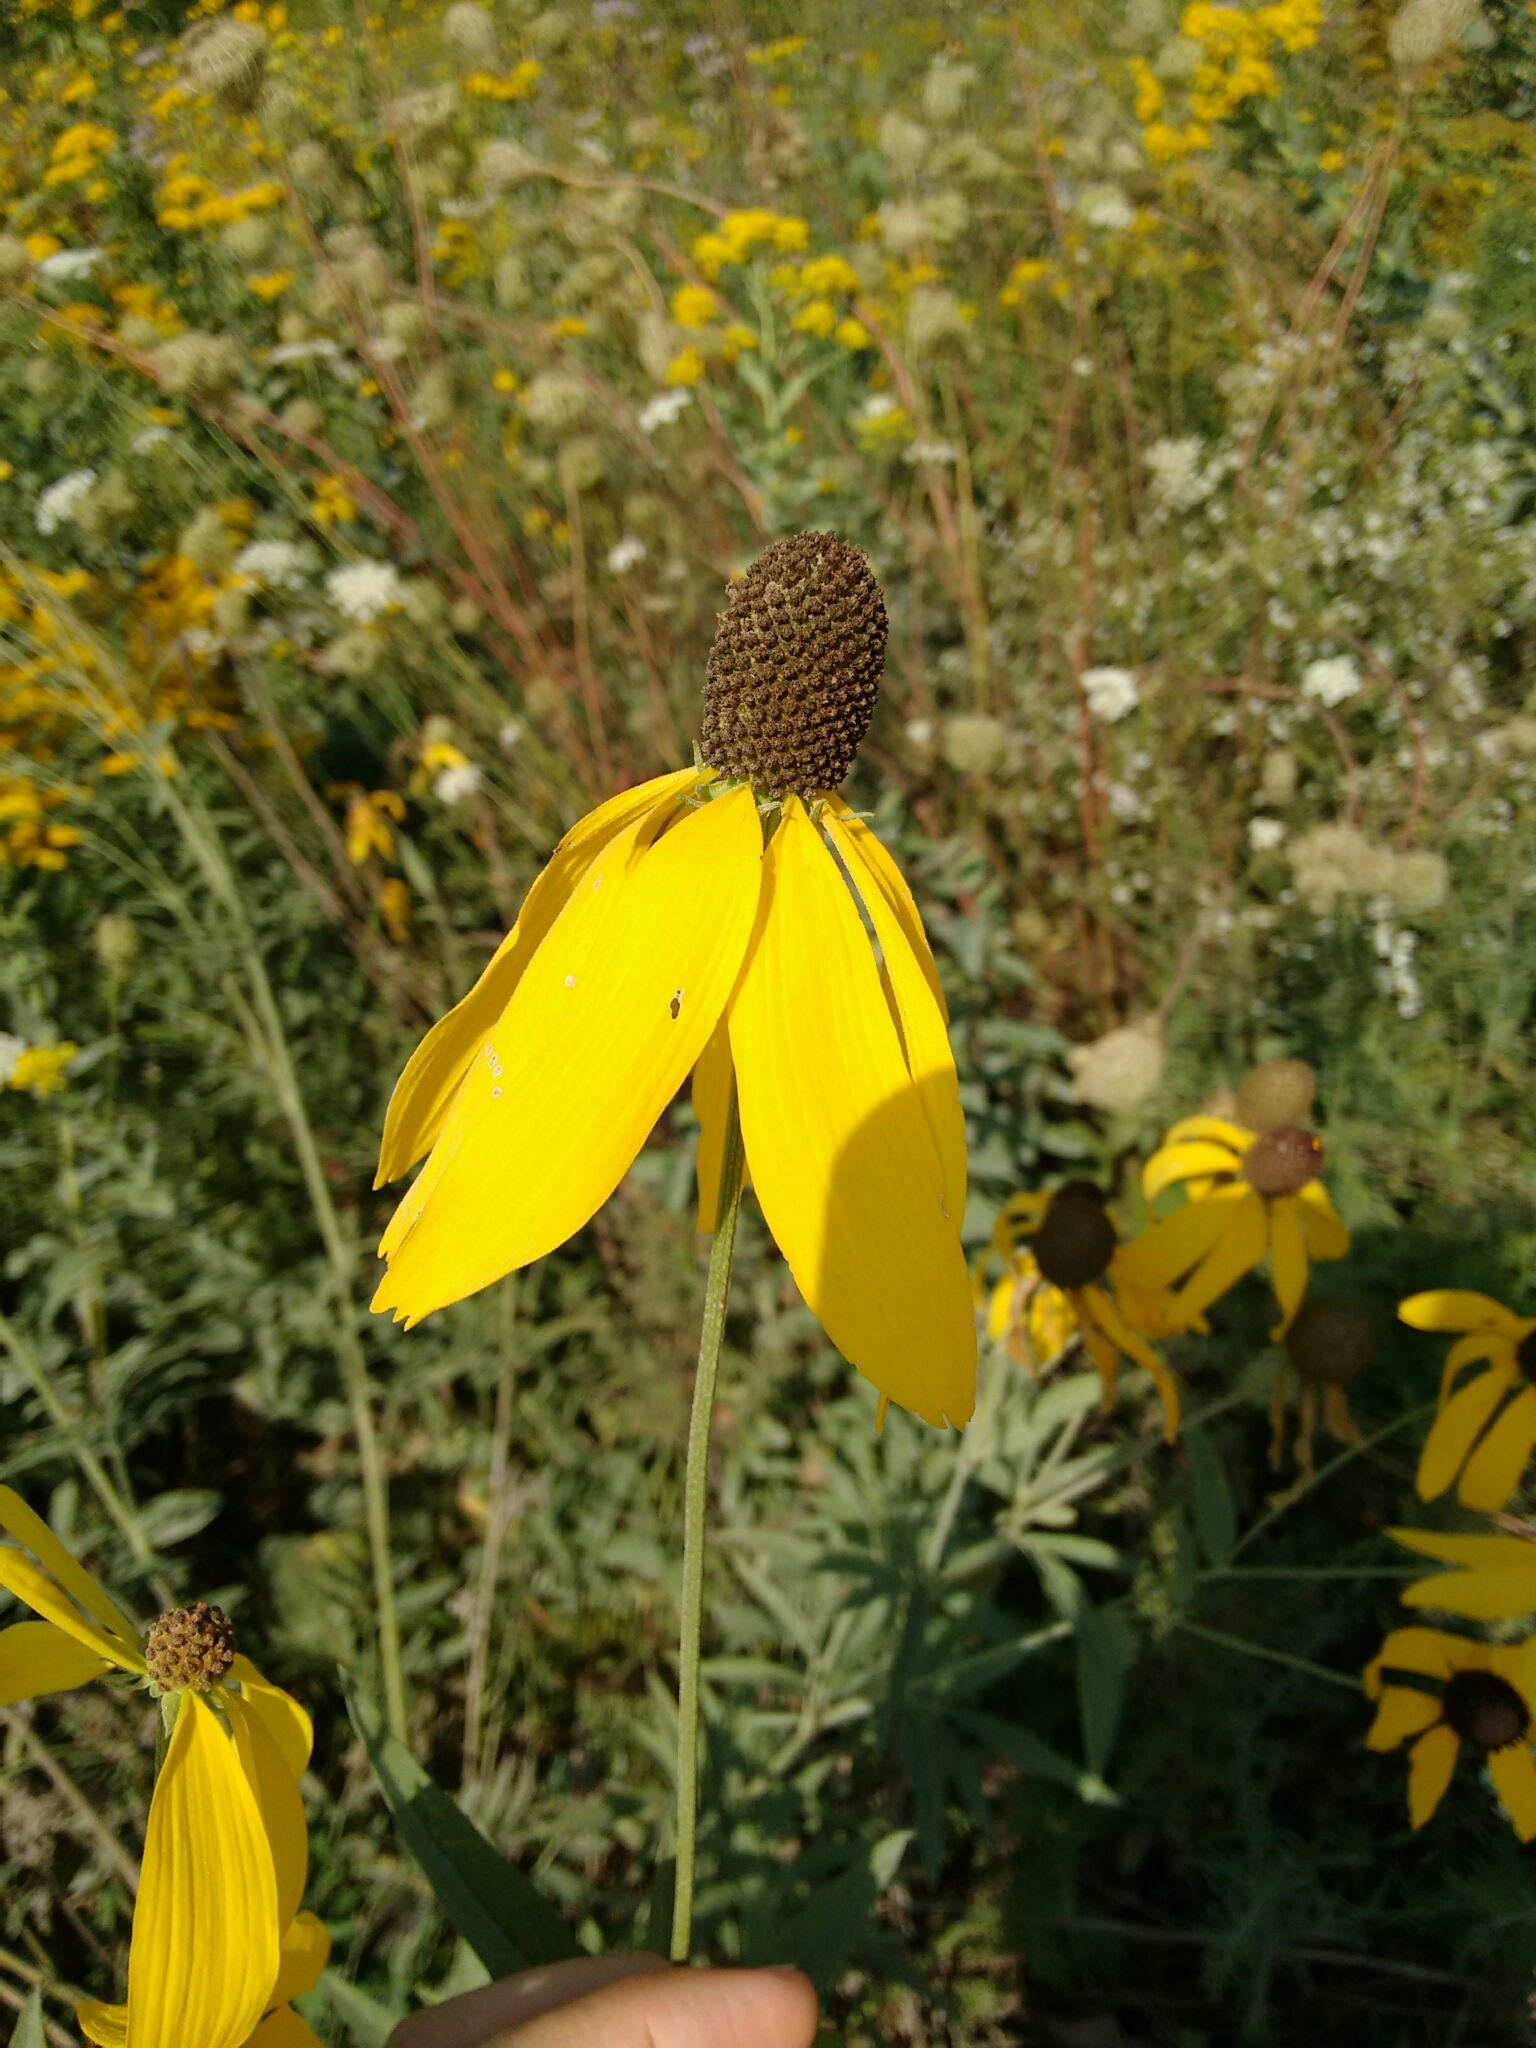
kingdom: Plantae
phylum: Tracheophyta
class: Magnoliopsida
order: Asterales
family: Asteraceae
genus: Ratibida
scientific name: Ratibida pinnata
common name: Drooping prairie-coneflower
